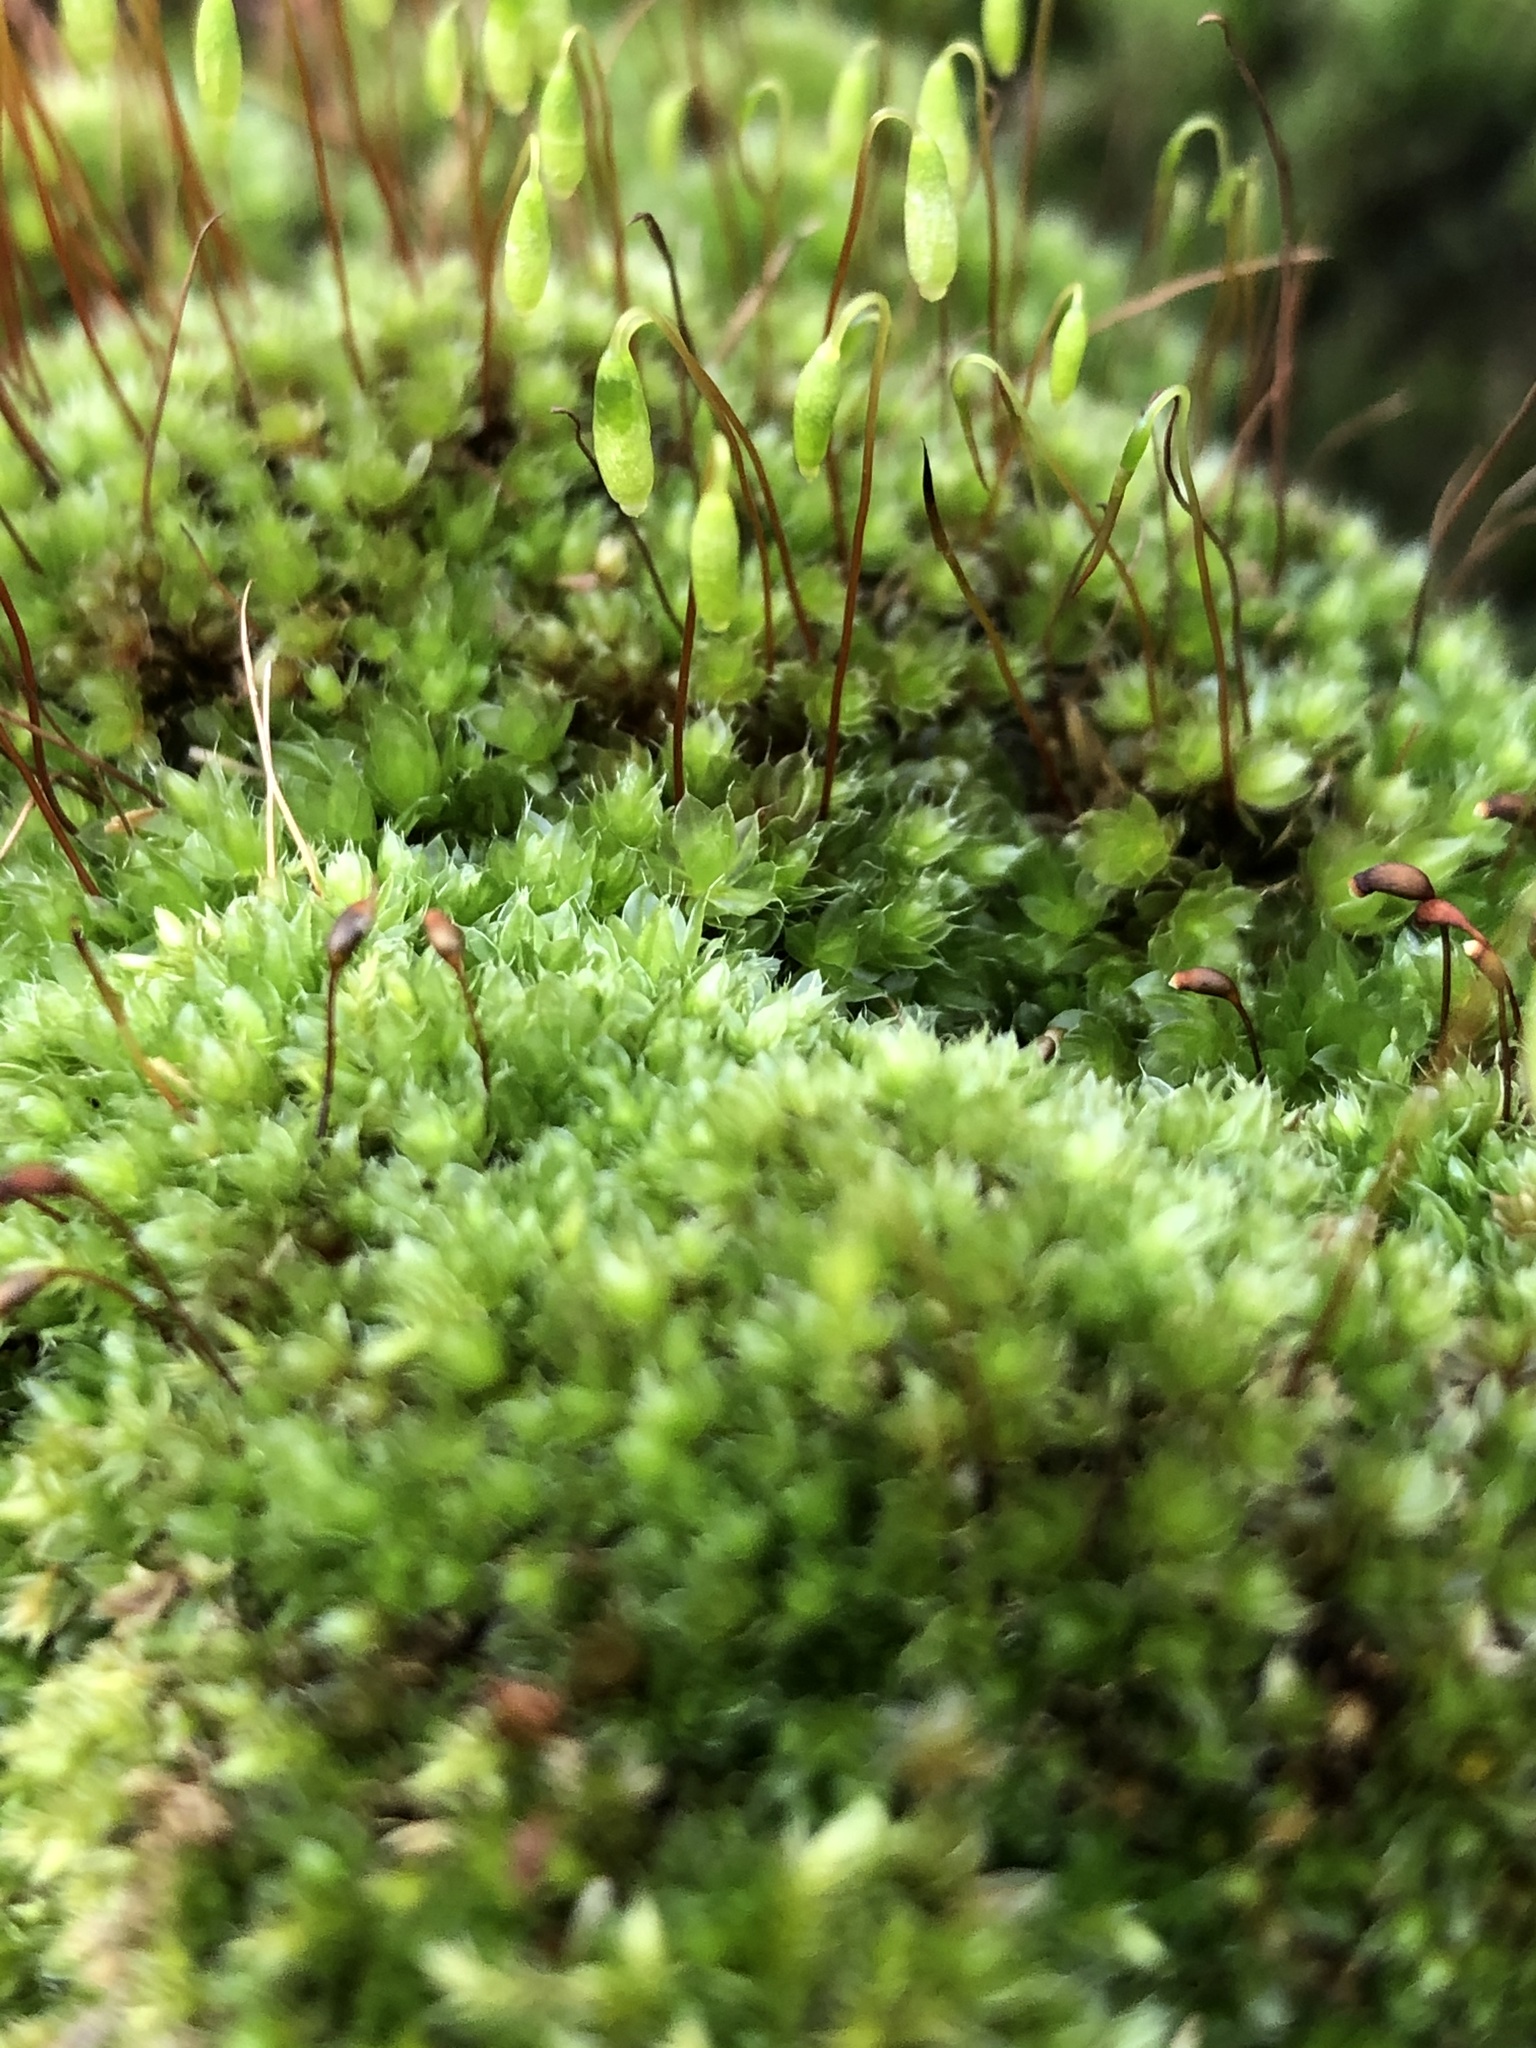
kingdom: Plantae
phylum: Bryophyta
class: Bryopsida
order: Bryales
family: Bryaceae
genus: Rosulabryum
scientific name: Rosulabryum capillare
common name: Capillary thread-moss
